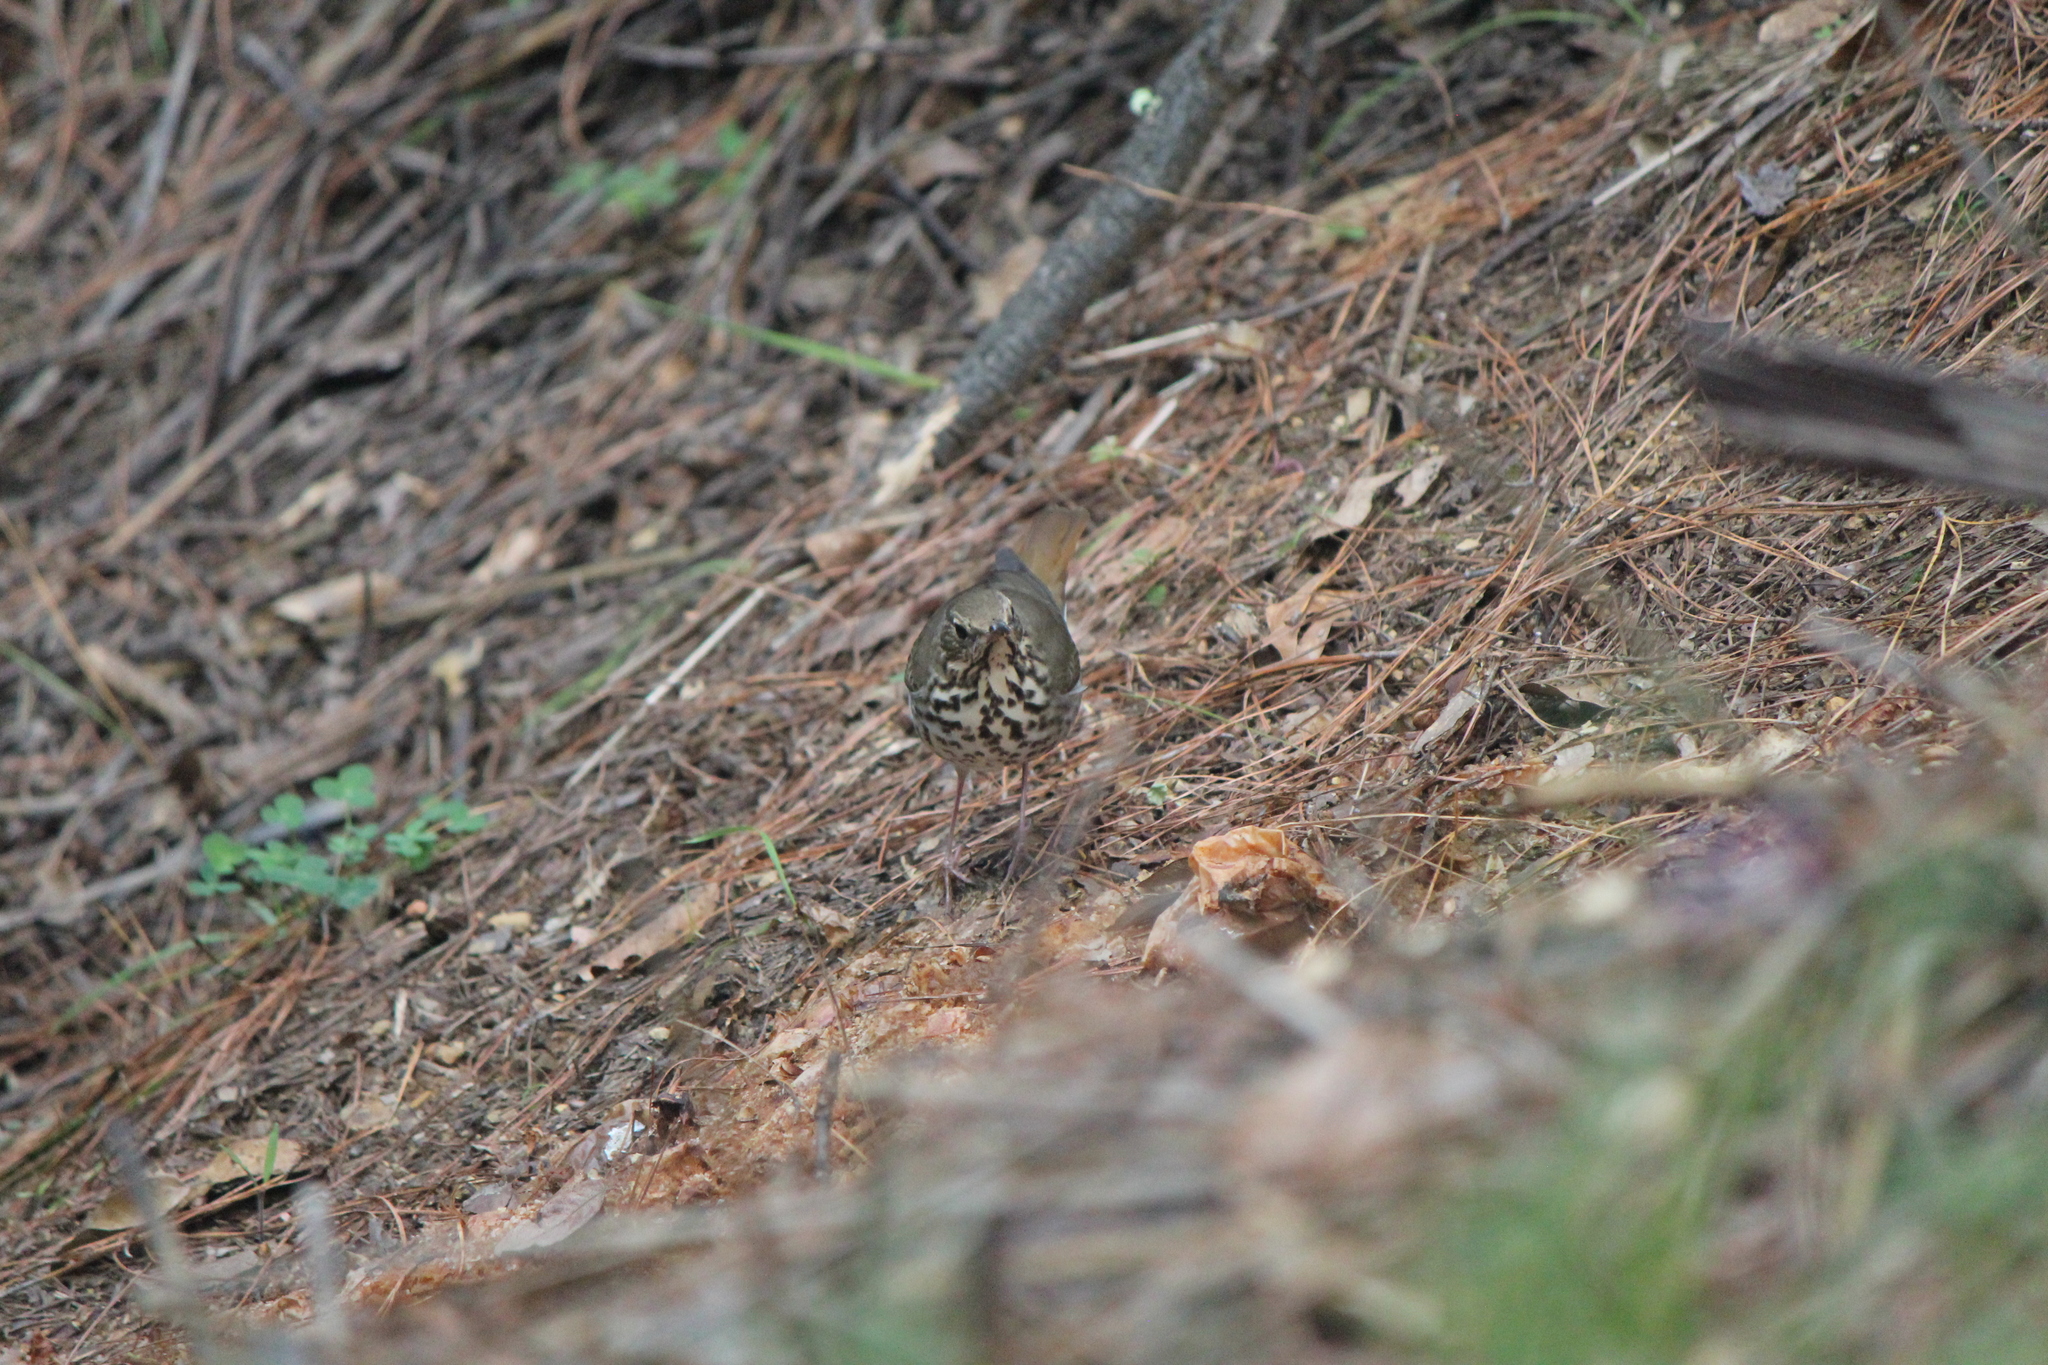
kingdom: Animalia
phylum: Chordata
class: Aves
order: Passeriformes
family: Turdidae
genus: Catharus
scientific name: Catharus guttatus
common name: Hermit thrush
